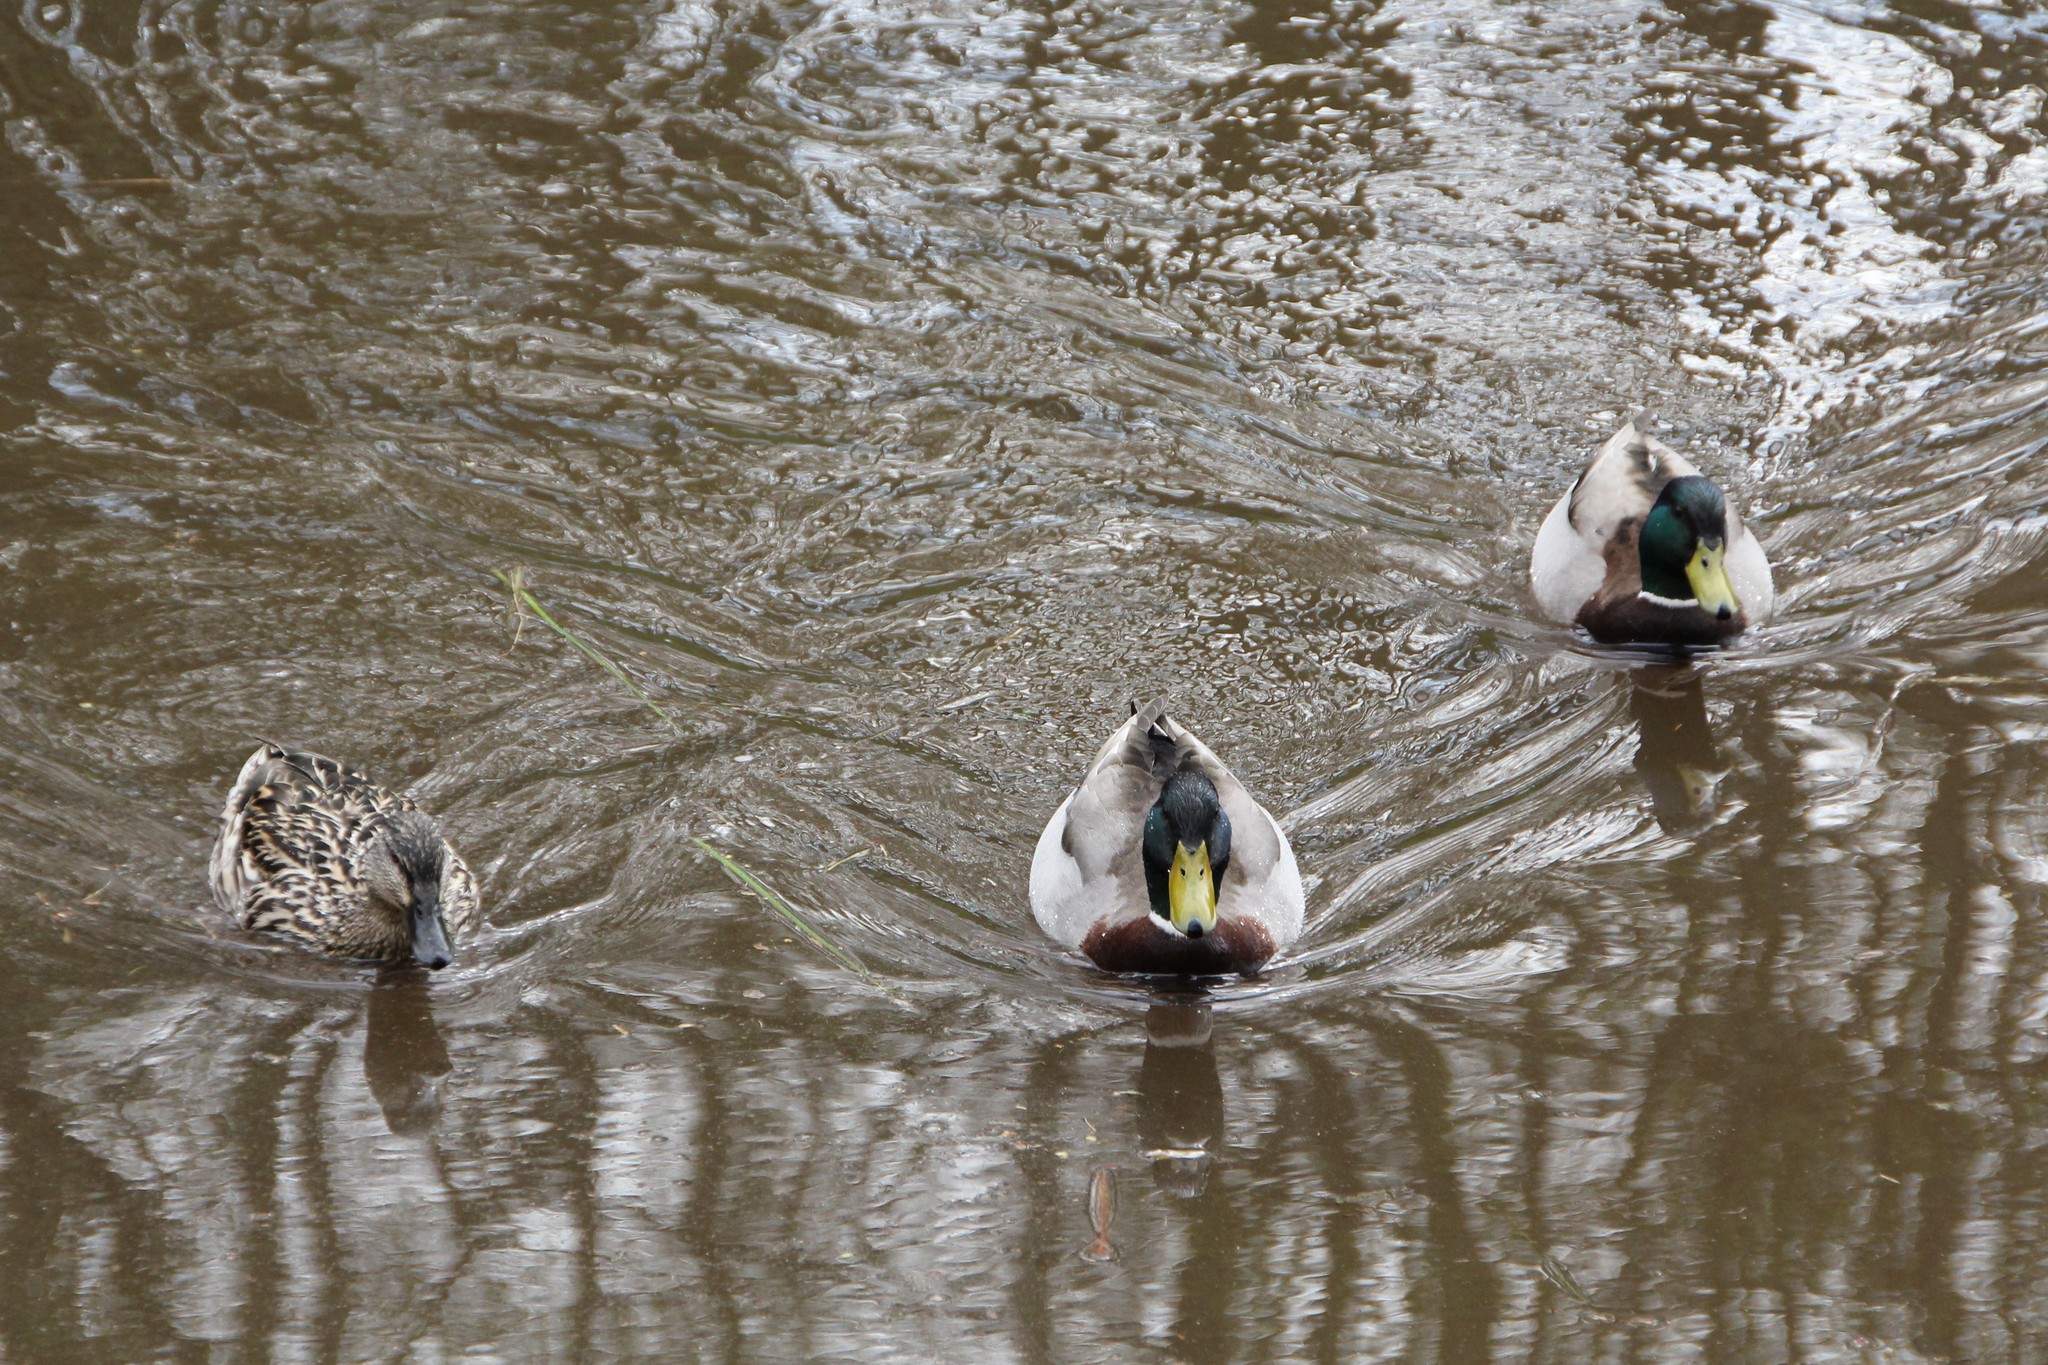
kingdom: Animalia
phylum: Chordata
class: Aves
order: Anseriformes
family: Anatidae
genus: Anas
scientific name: Anas platyrhynchos
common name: Mallard
